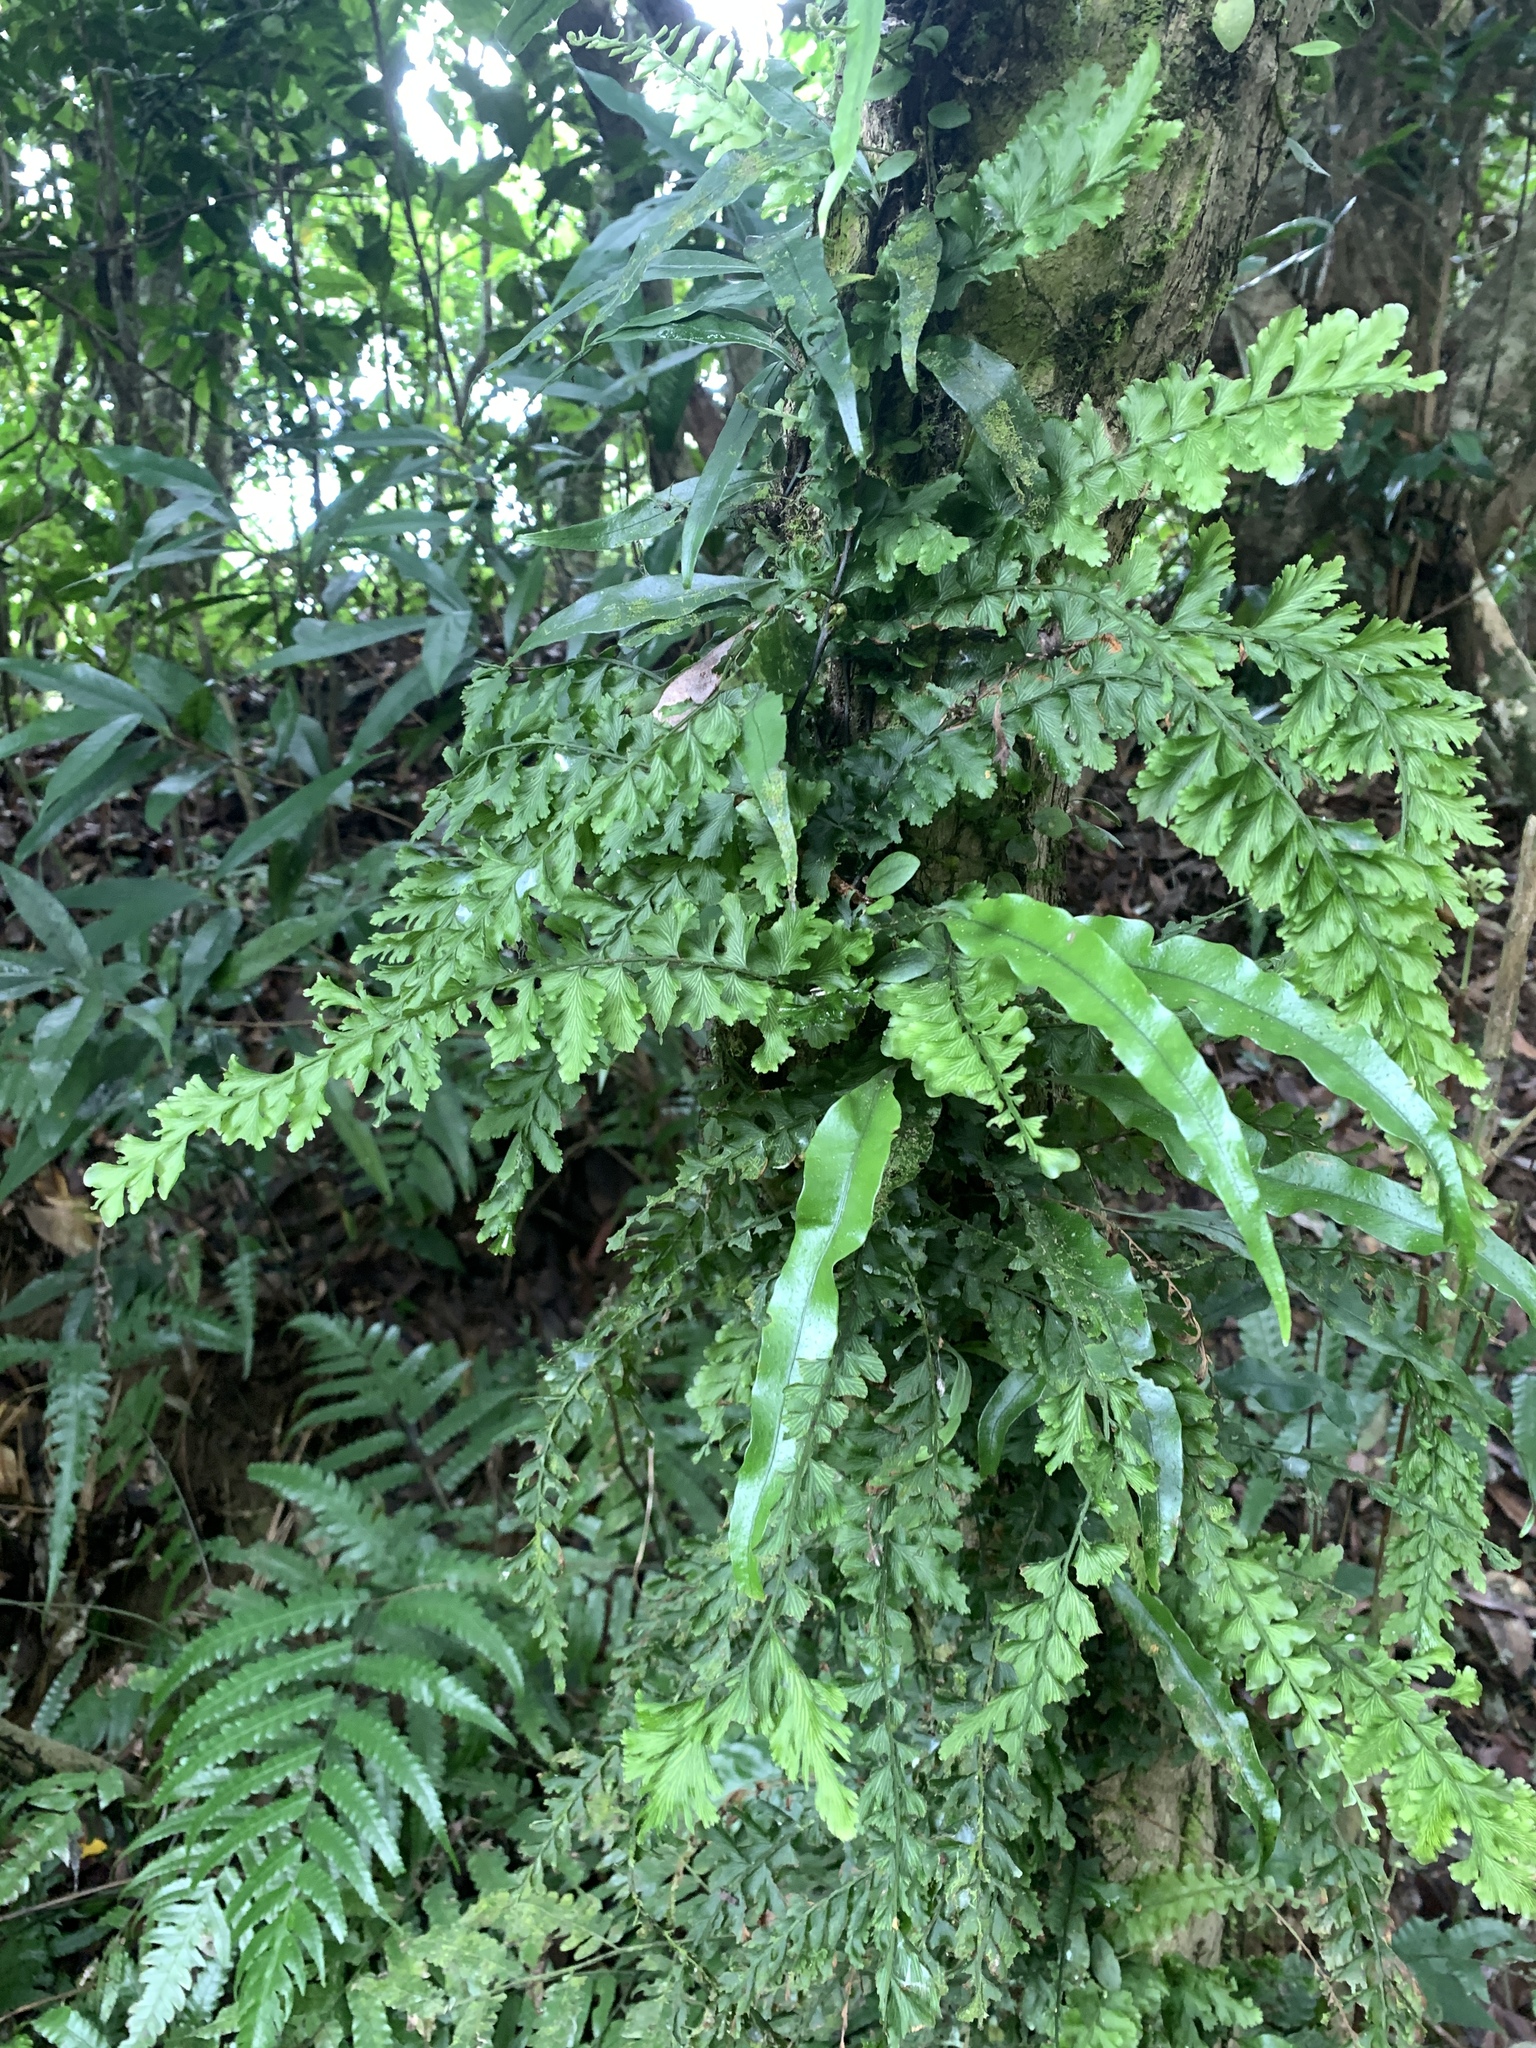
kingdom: Plantae
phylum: Tracheophyta
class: Polypodiopsida
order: Hymenophyllales
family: Hymenophyllaceae
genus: Vandenboschia
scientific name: Vandenboschia auriculata
